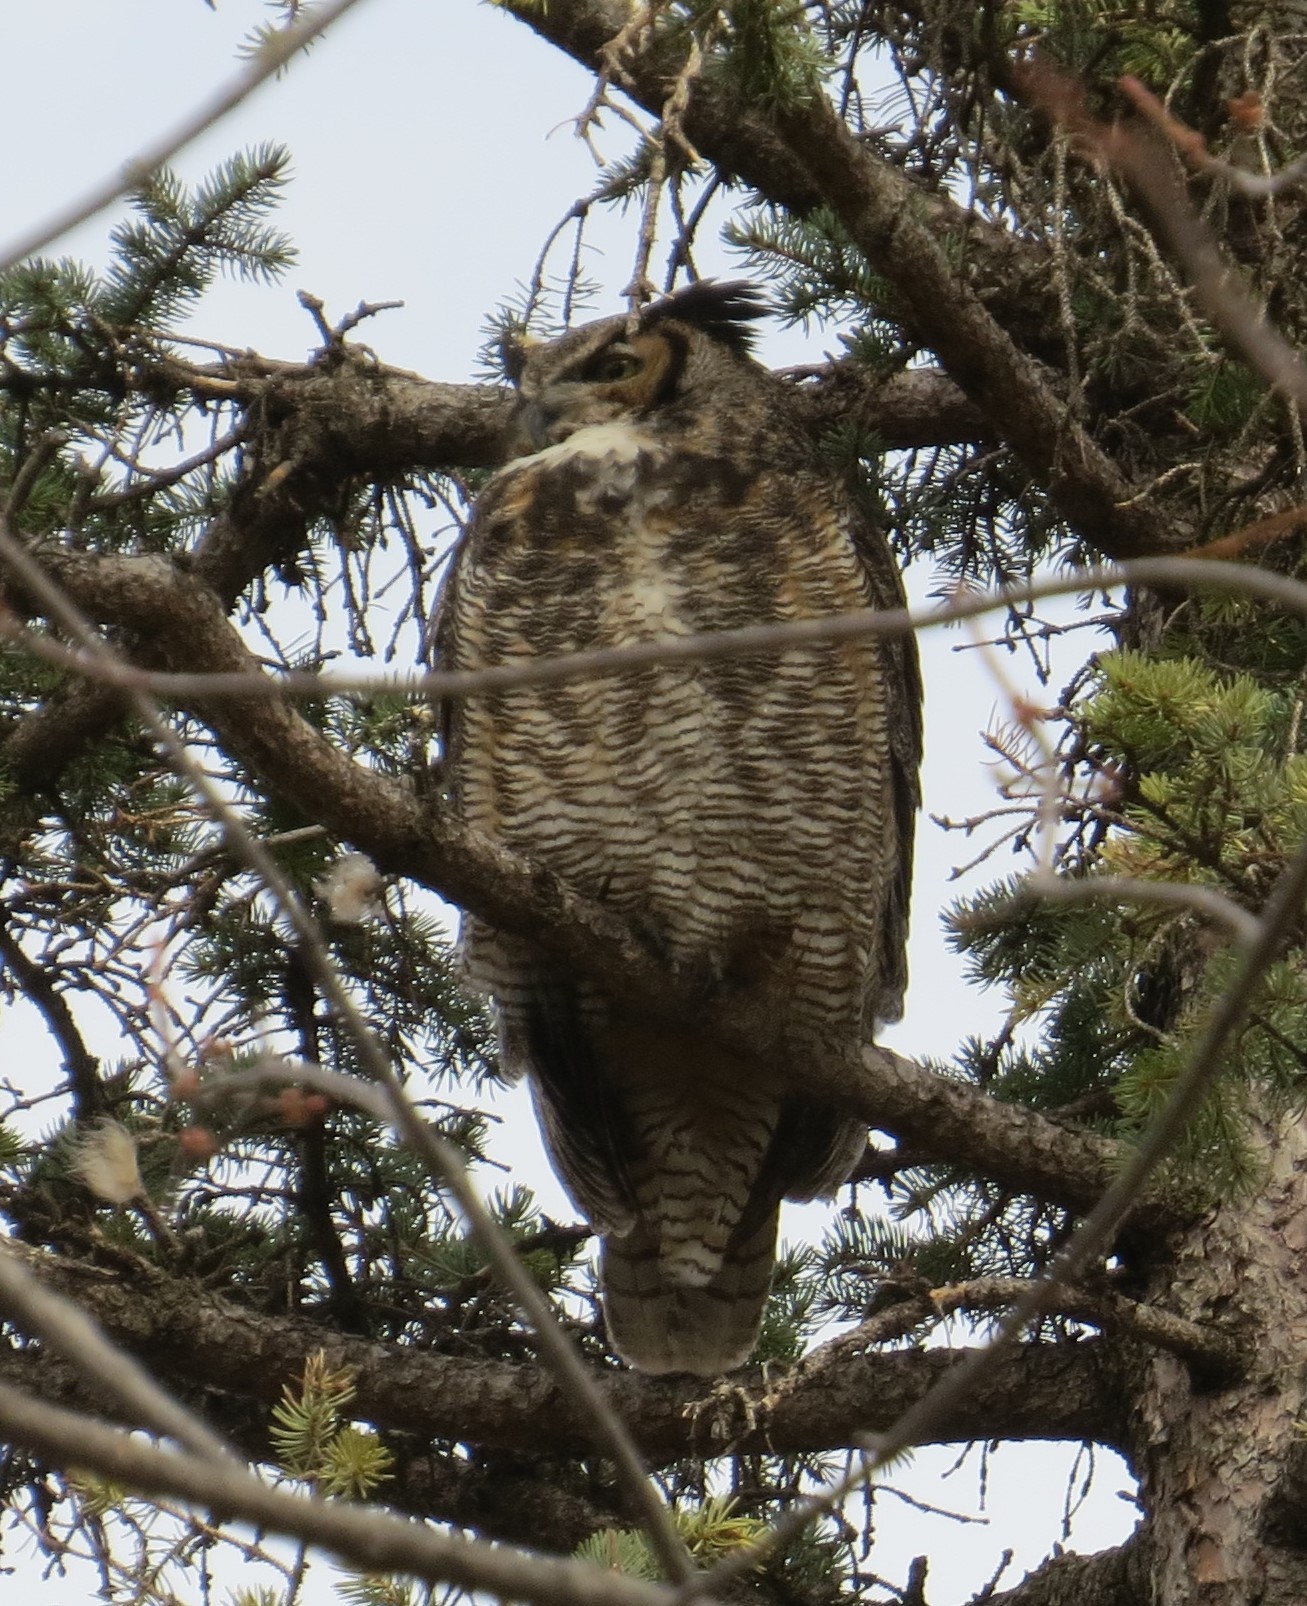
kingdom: Animalia
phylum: Chordata
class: Aves
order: Strigiformes
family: Strigidae
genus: Bubo
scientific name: Bubo virginianus
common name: Great horned owl
